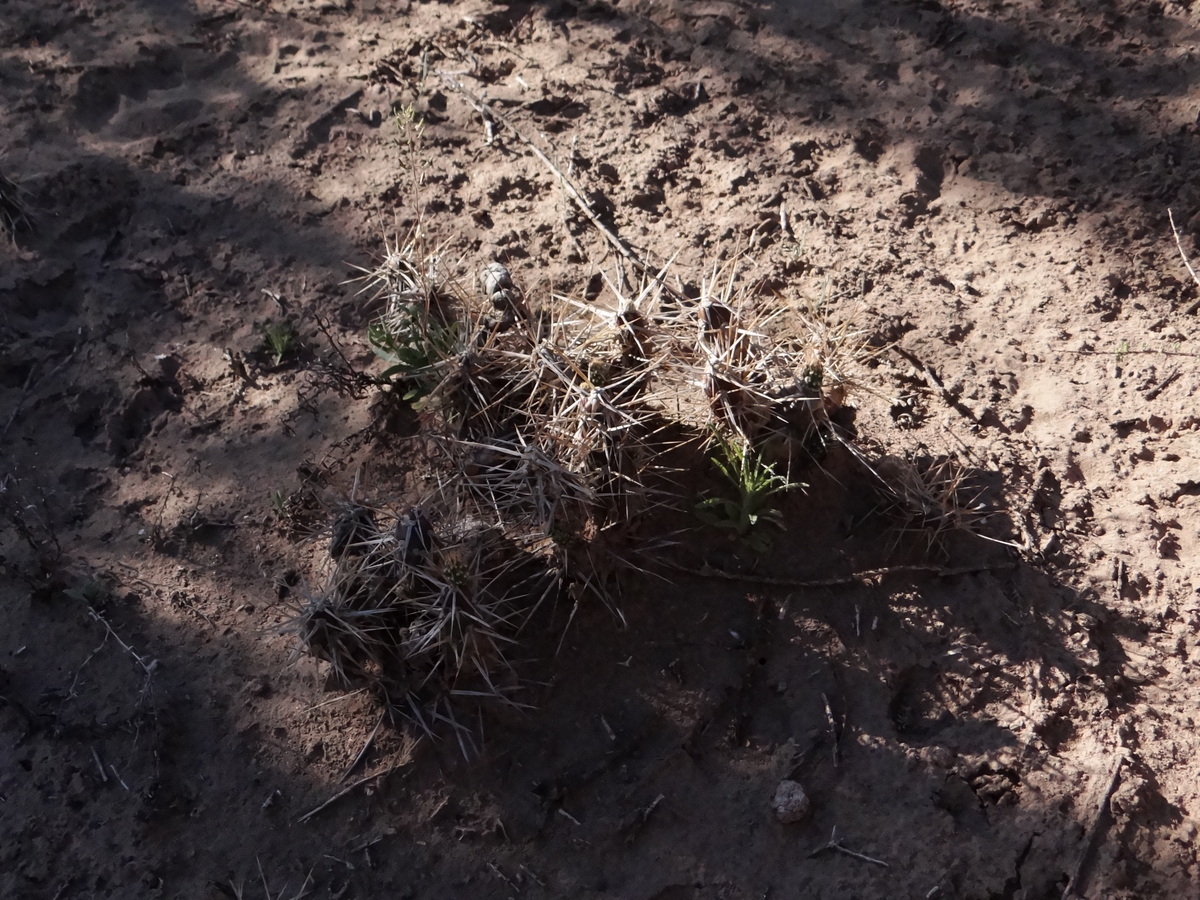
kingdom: Plantae
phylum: Tracheophyta
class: Magnoliopsida
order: Caryophyllales
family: Cactaceae
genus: Maihueniopsis
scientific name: Maihueniopsis hickenii
